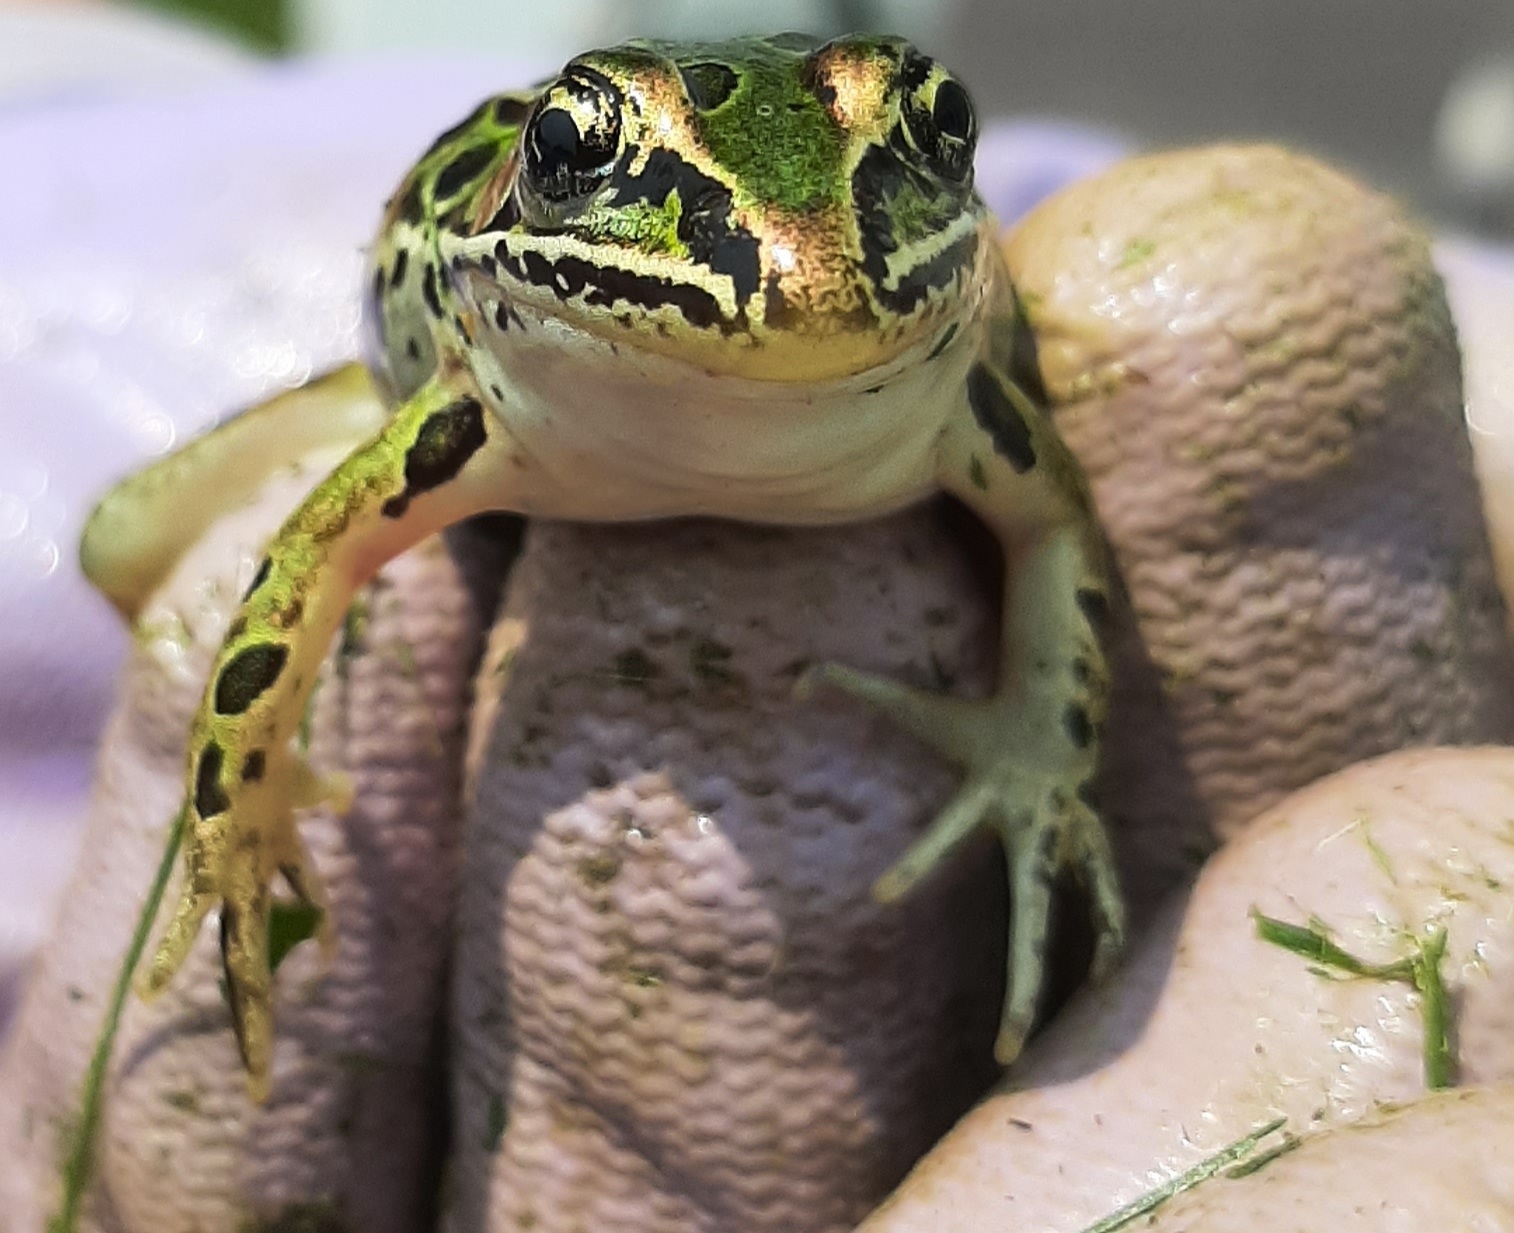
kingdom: Animalia
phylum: Chordata
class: Amphibia
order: Anura
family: Ranidae
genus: Lithobates
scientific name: Lithobates pipiens
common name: Northern leopard frog
